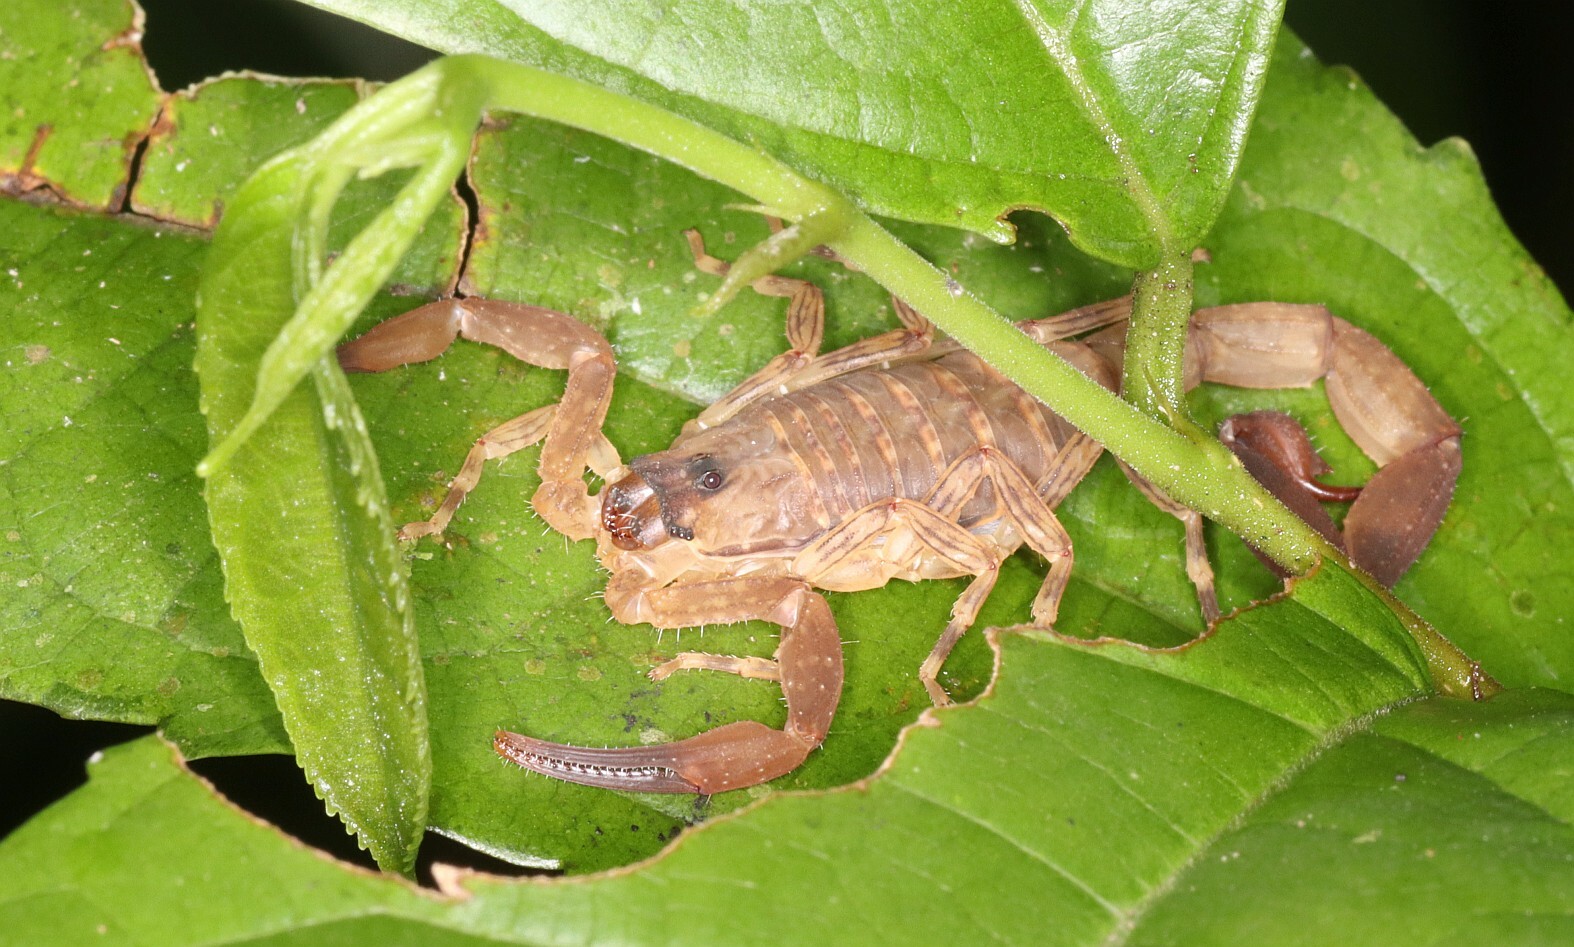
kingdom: Animalia
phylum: Arthropoda
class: Arachnida
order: Scorpiones
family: Buthidae
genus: Tityus
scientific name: Tityus dillerorum
